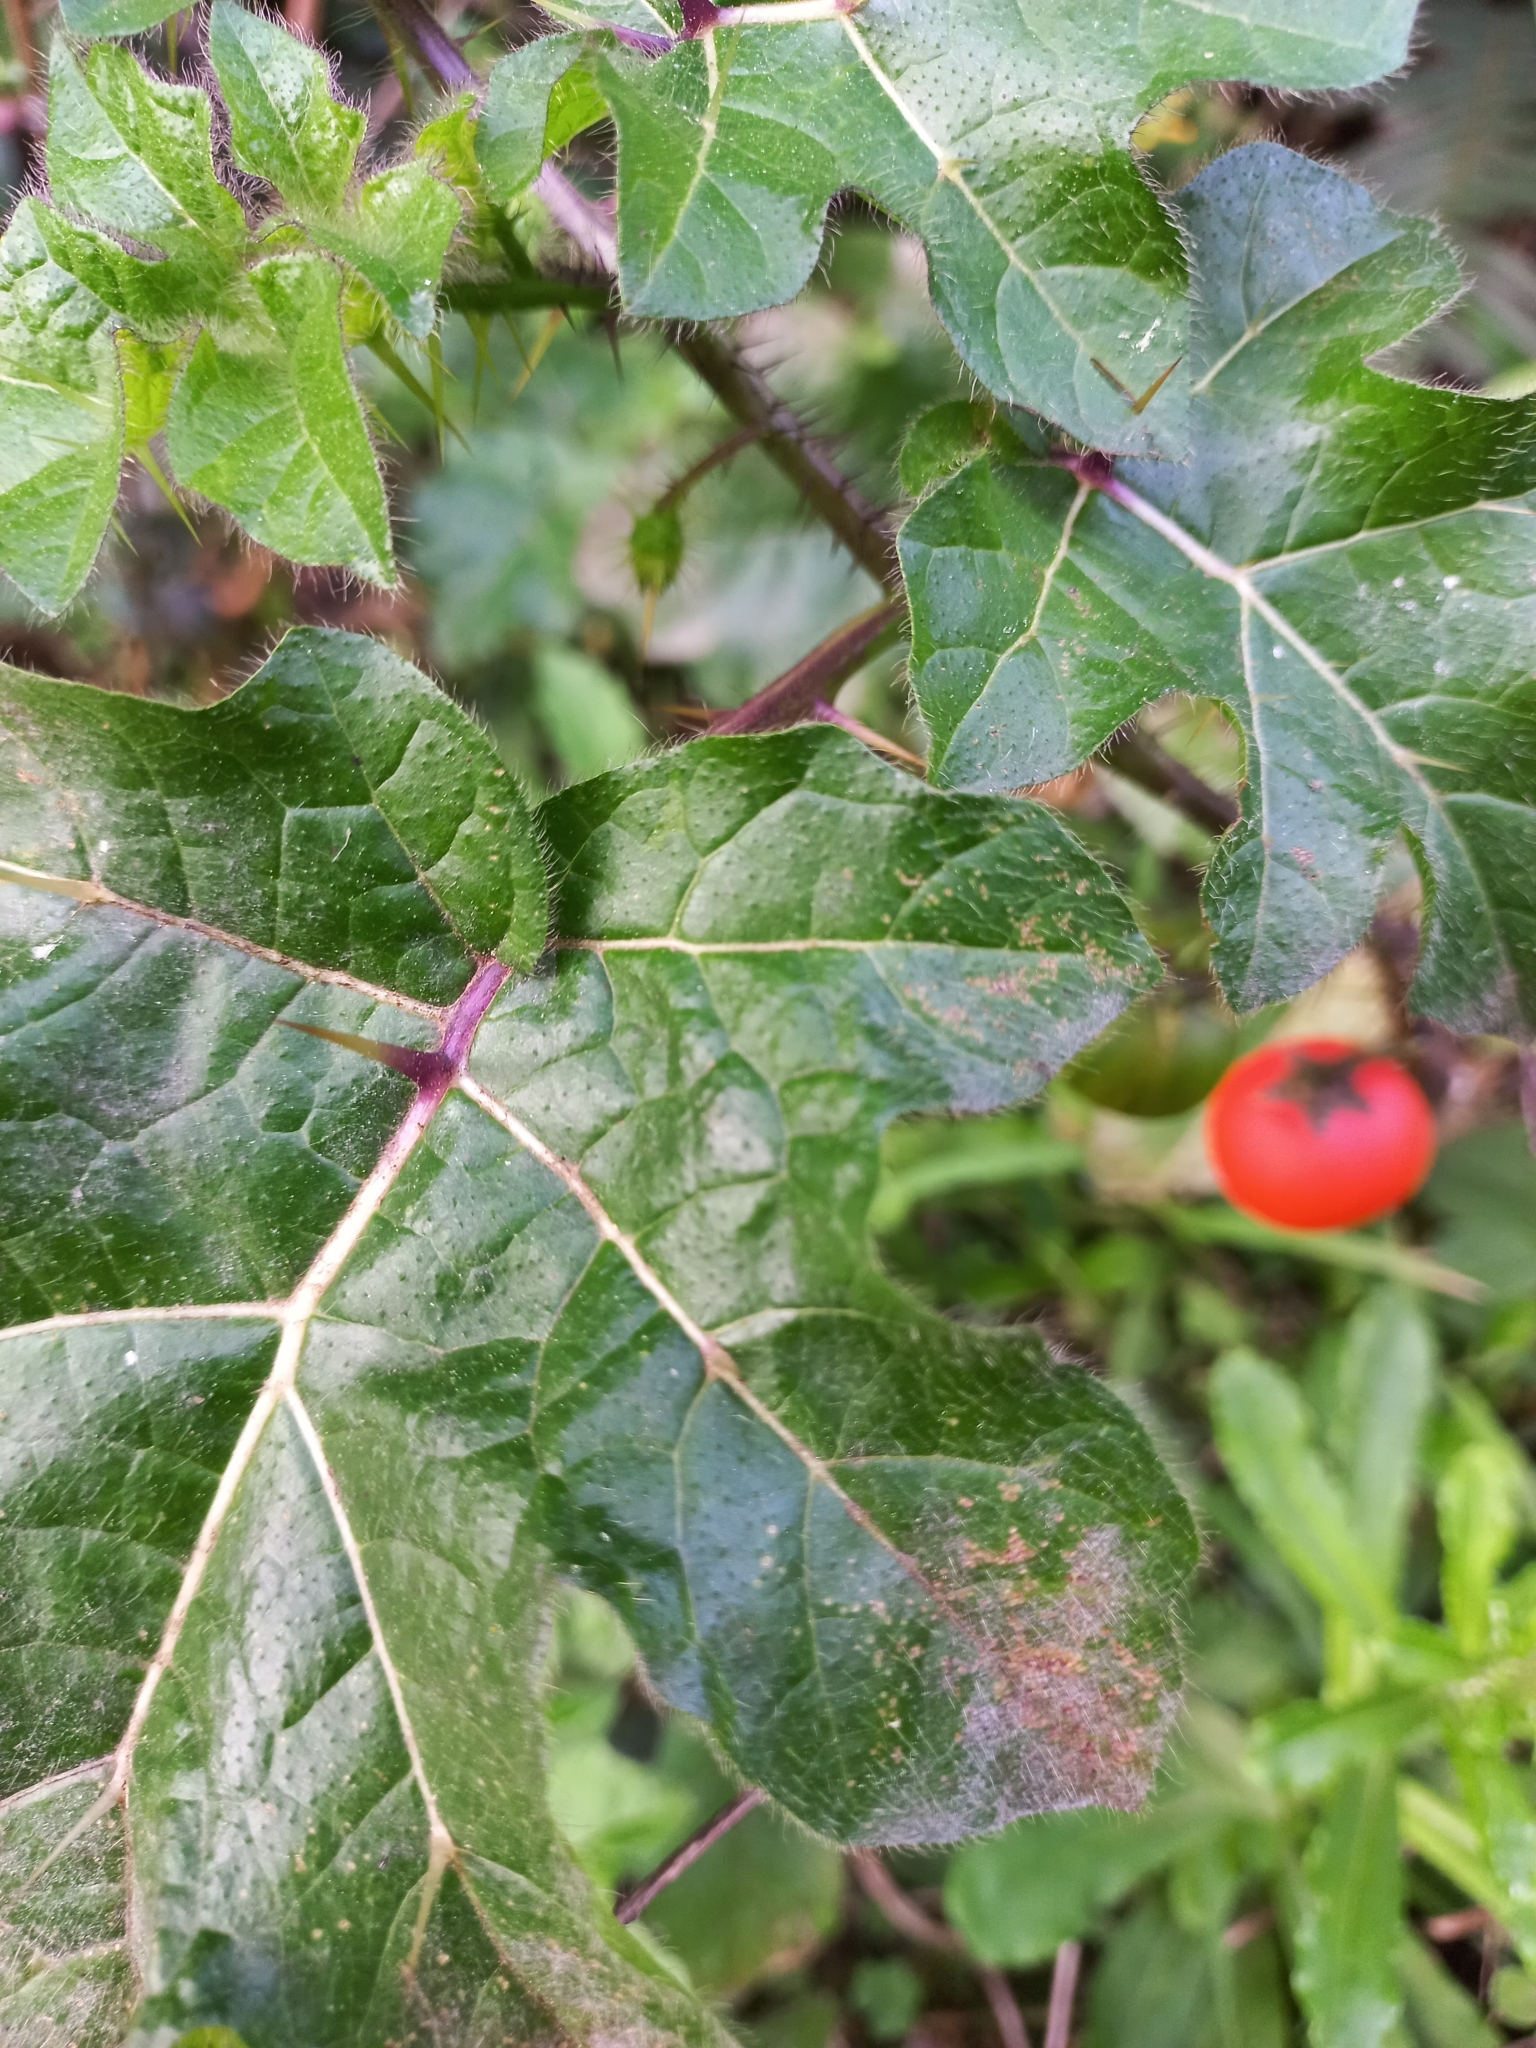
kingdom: Plantae
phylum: Tracheophyta
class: Magnoliopsida
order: Solanales
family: Solanaceae
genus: Solanum
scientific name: Solanum capsicoides
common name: Cockroach berry
